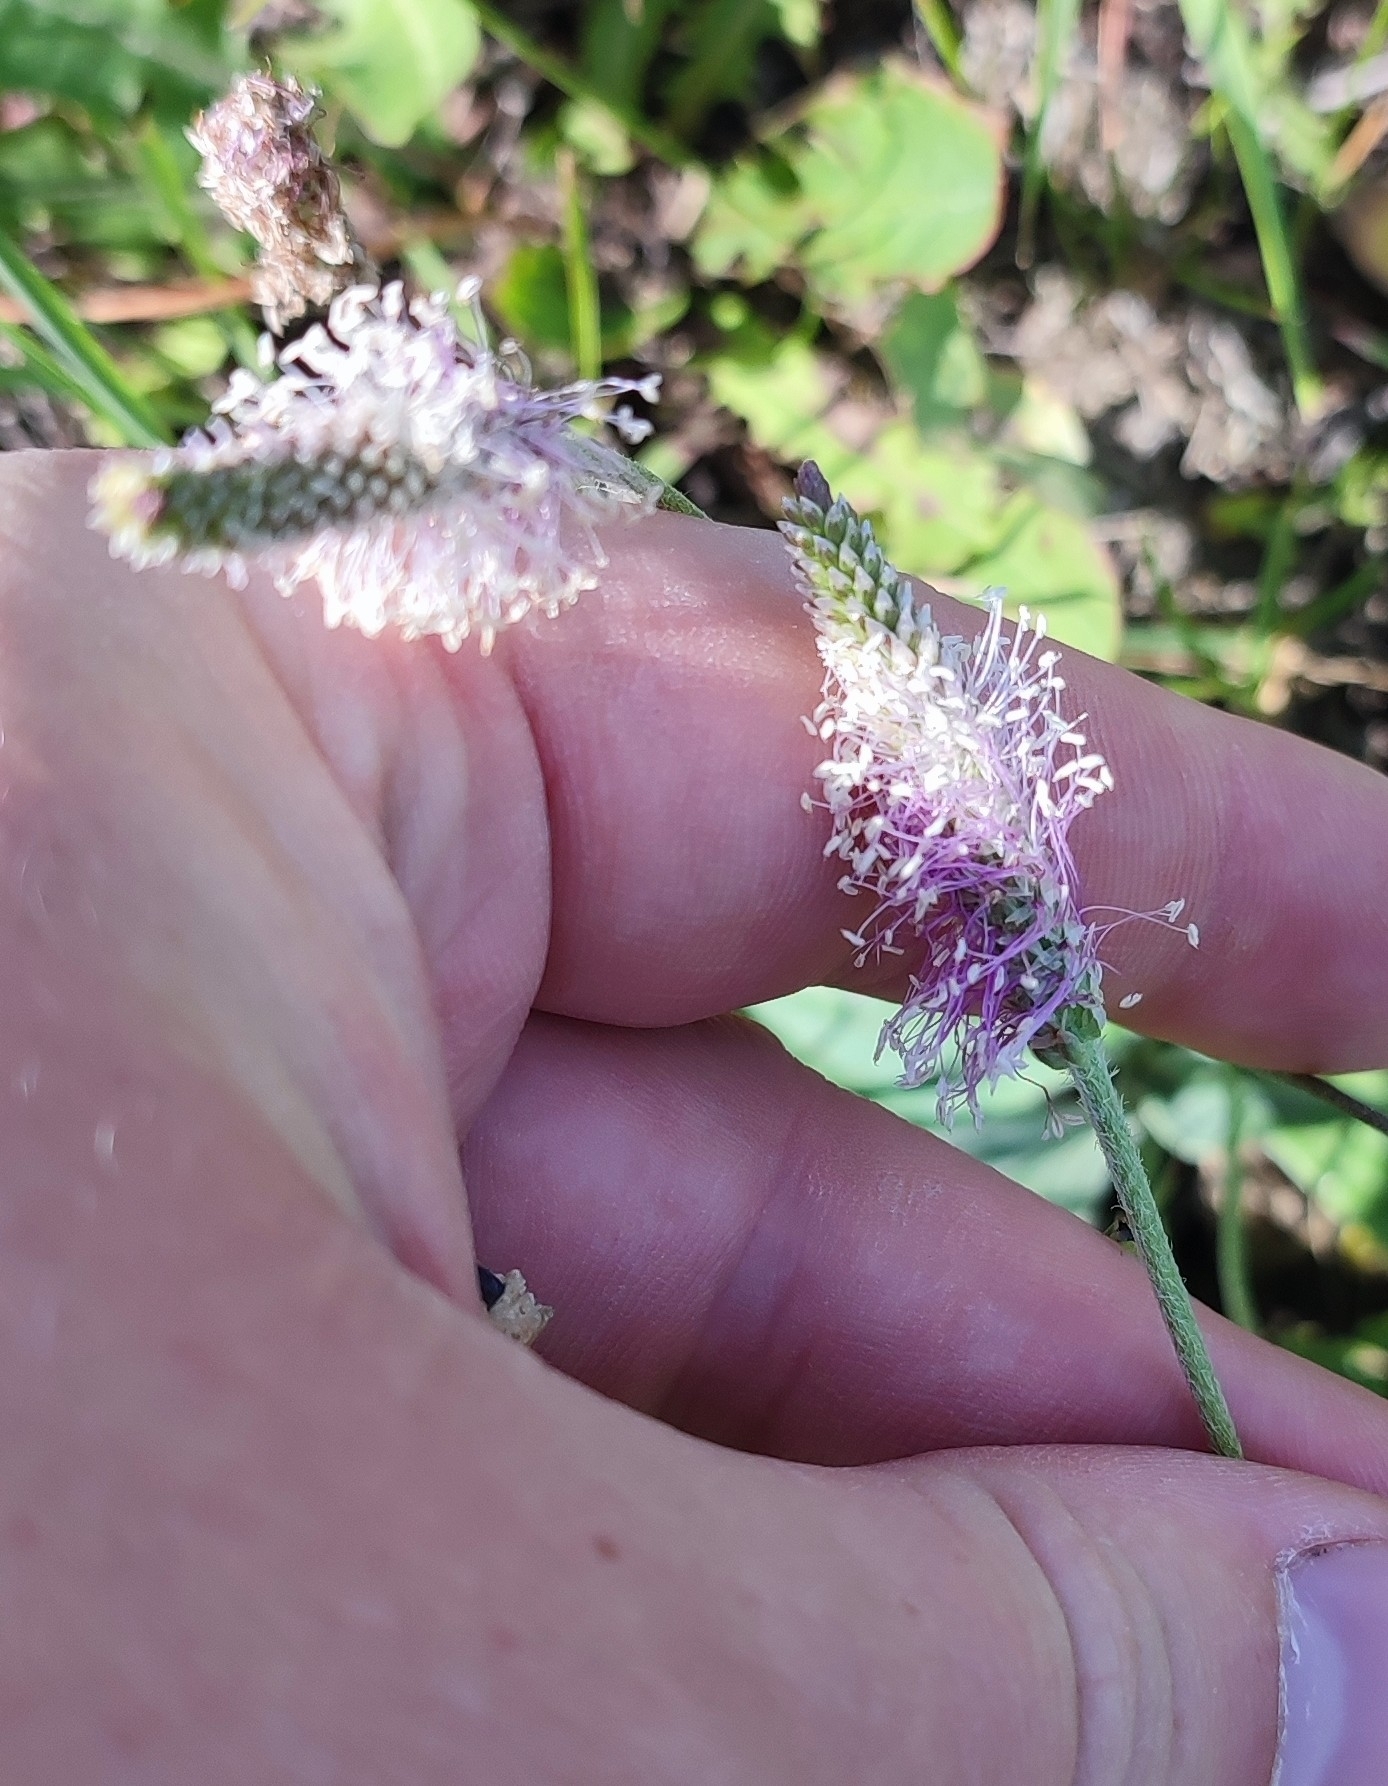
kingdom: Plantae
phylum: Tracheophyta
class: Magnoliopsida
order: Lamiales
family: Plantaginaceae
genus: Plantago
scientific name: Plantago media
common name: Hoary plantain
